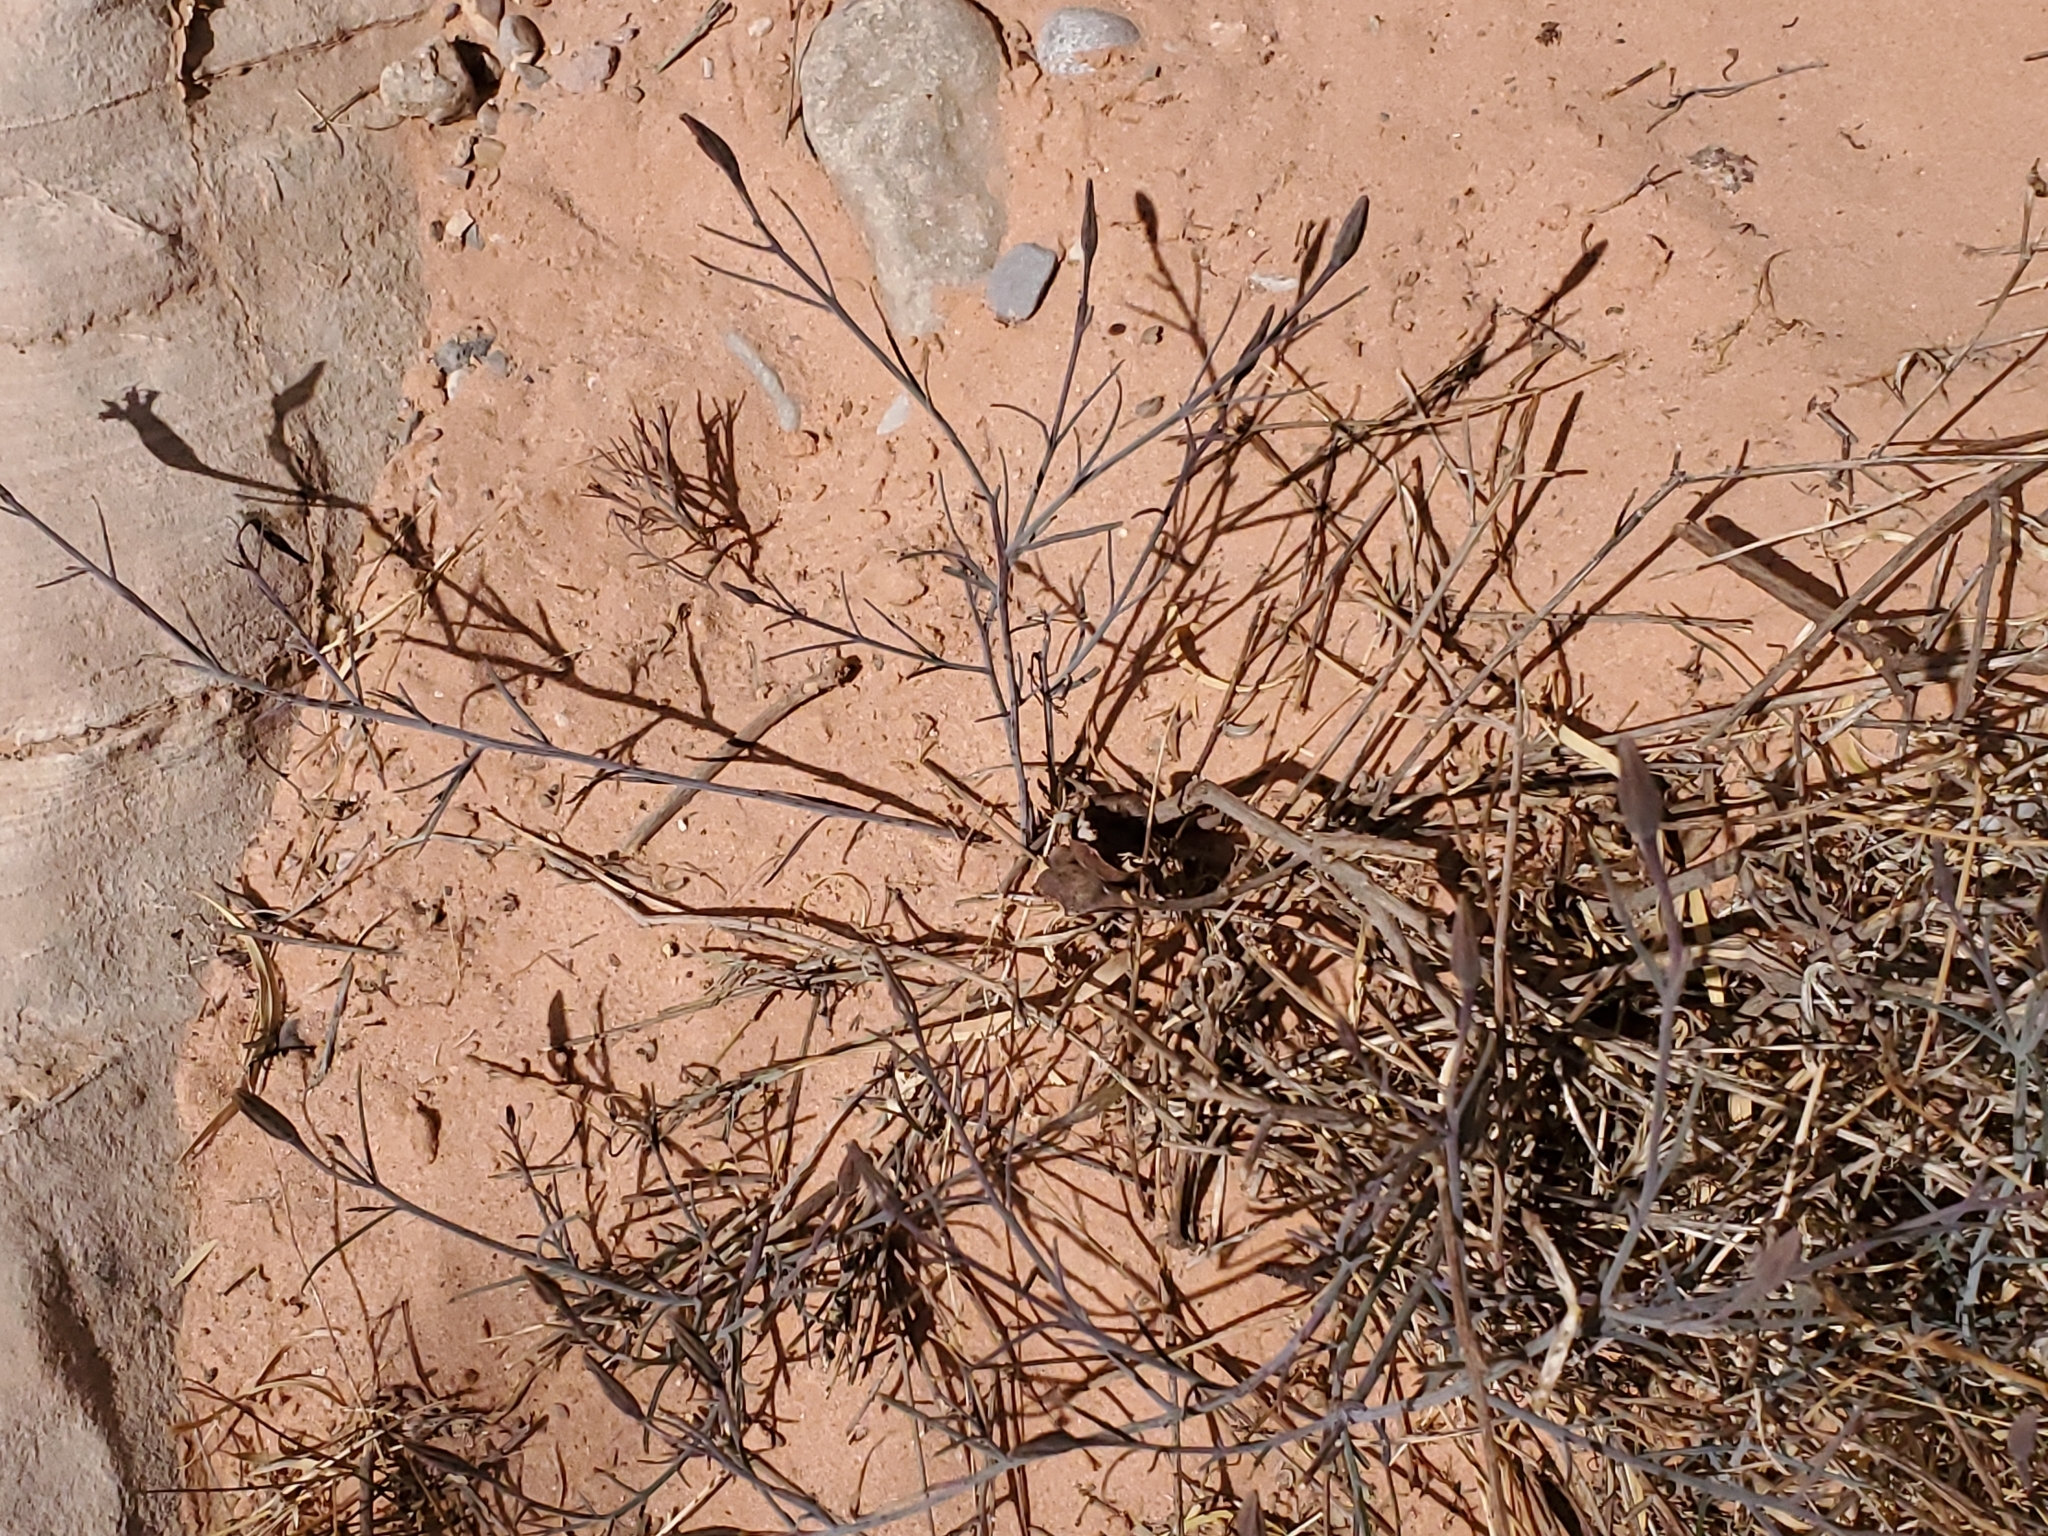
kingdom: Plantae
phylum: Tracheophyta
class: Magnoliopsida
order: Asterales
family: Asteraceae
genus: Porophyllum
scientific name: Porophyllum gracile
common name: Odora
